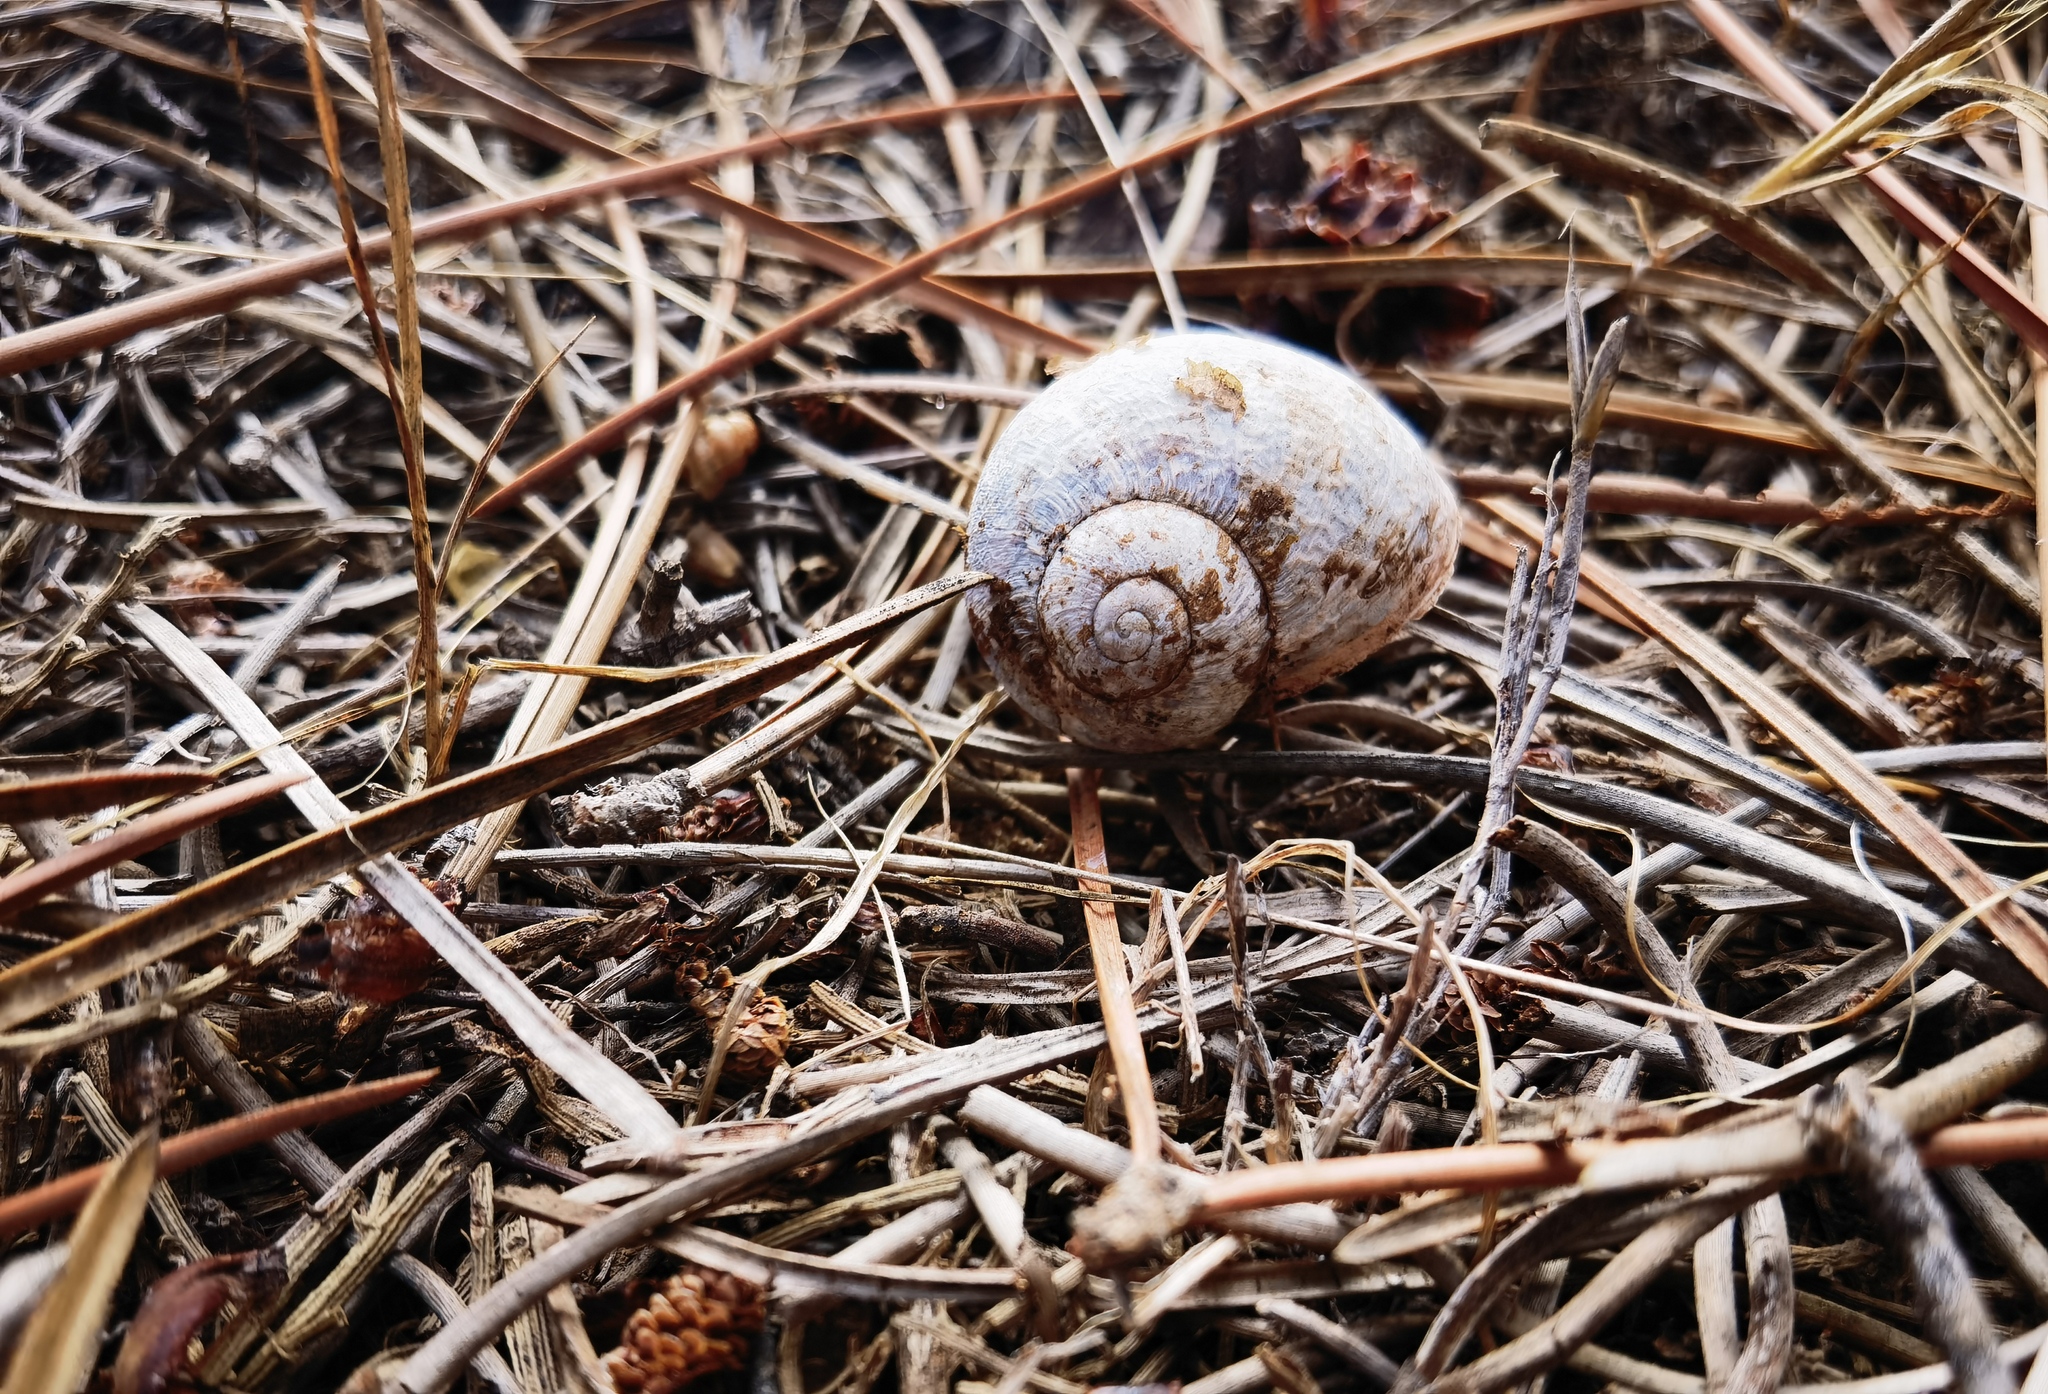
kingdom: Animalia
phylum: Mollusca
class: Gastropoda
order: Stylommatophora
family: Helicidae
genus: Cornu
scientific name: Cornu aspersum
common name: Brown garden snail
